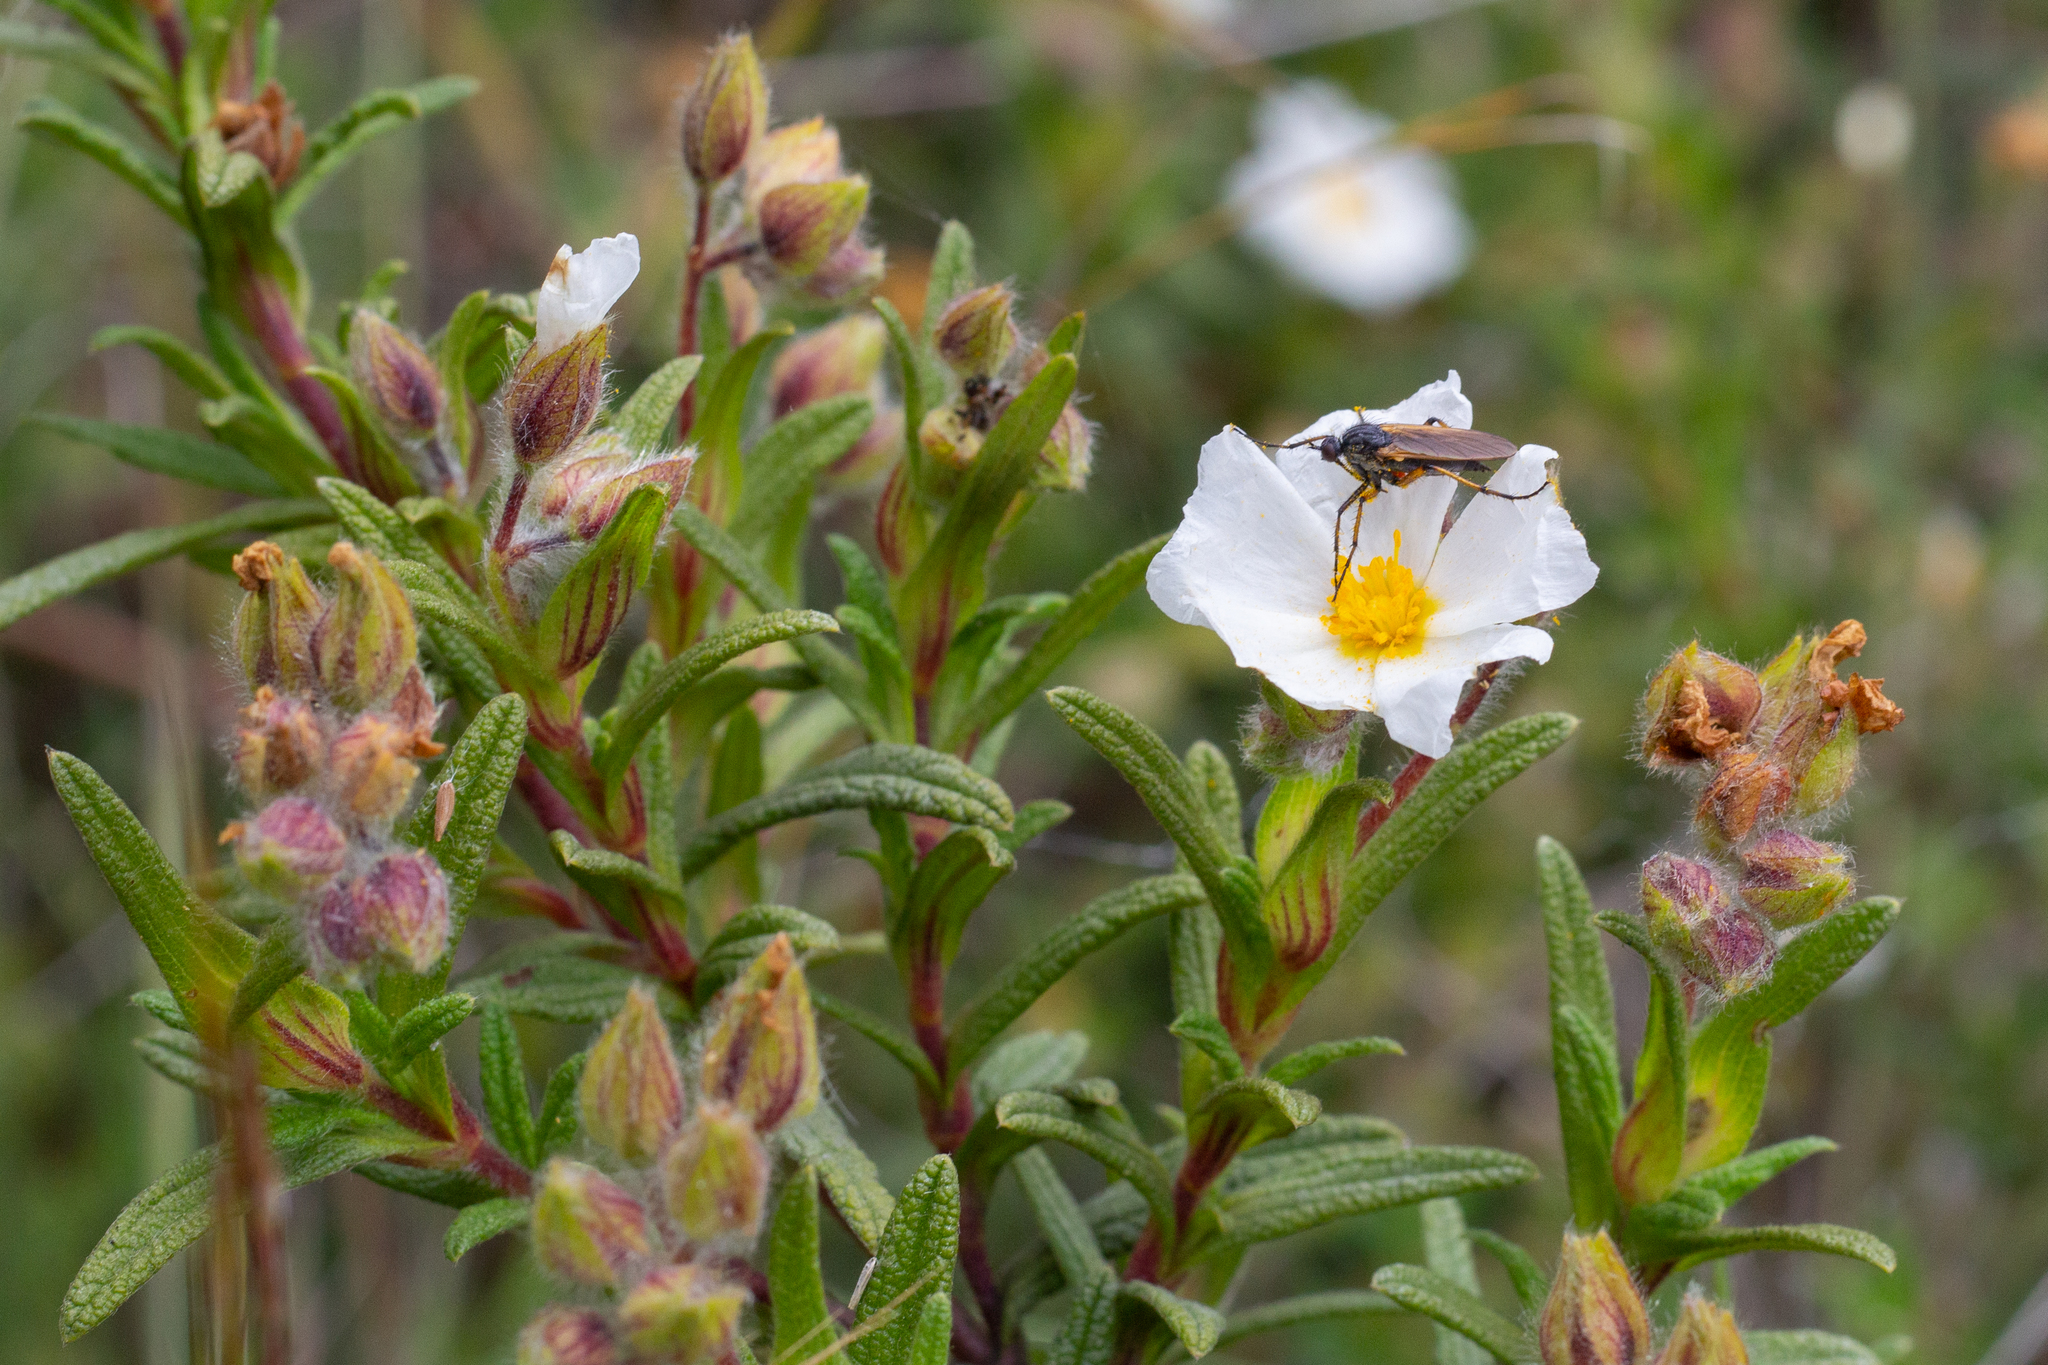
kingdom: Plantae
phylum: Tracheophyta
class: Magnoliopsida
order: Malvales
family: Cistaceae
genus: Cistus
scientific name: Cistus monspeliensis
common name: Montpelier cistus
